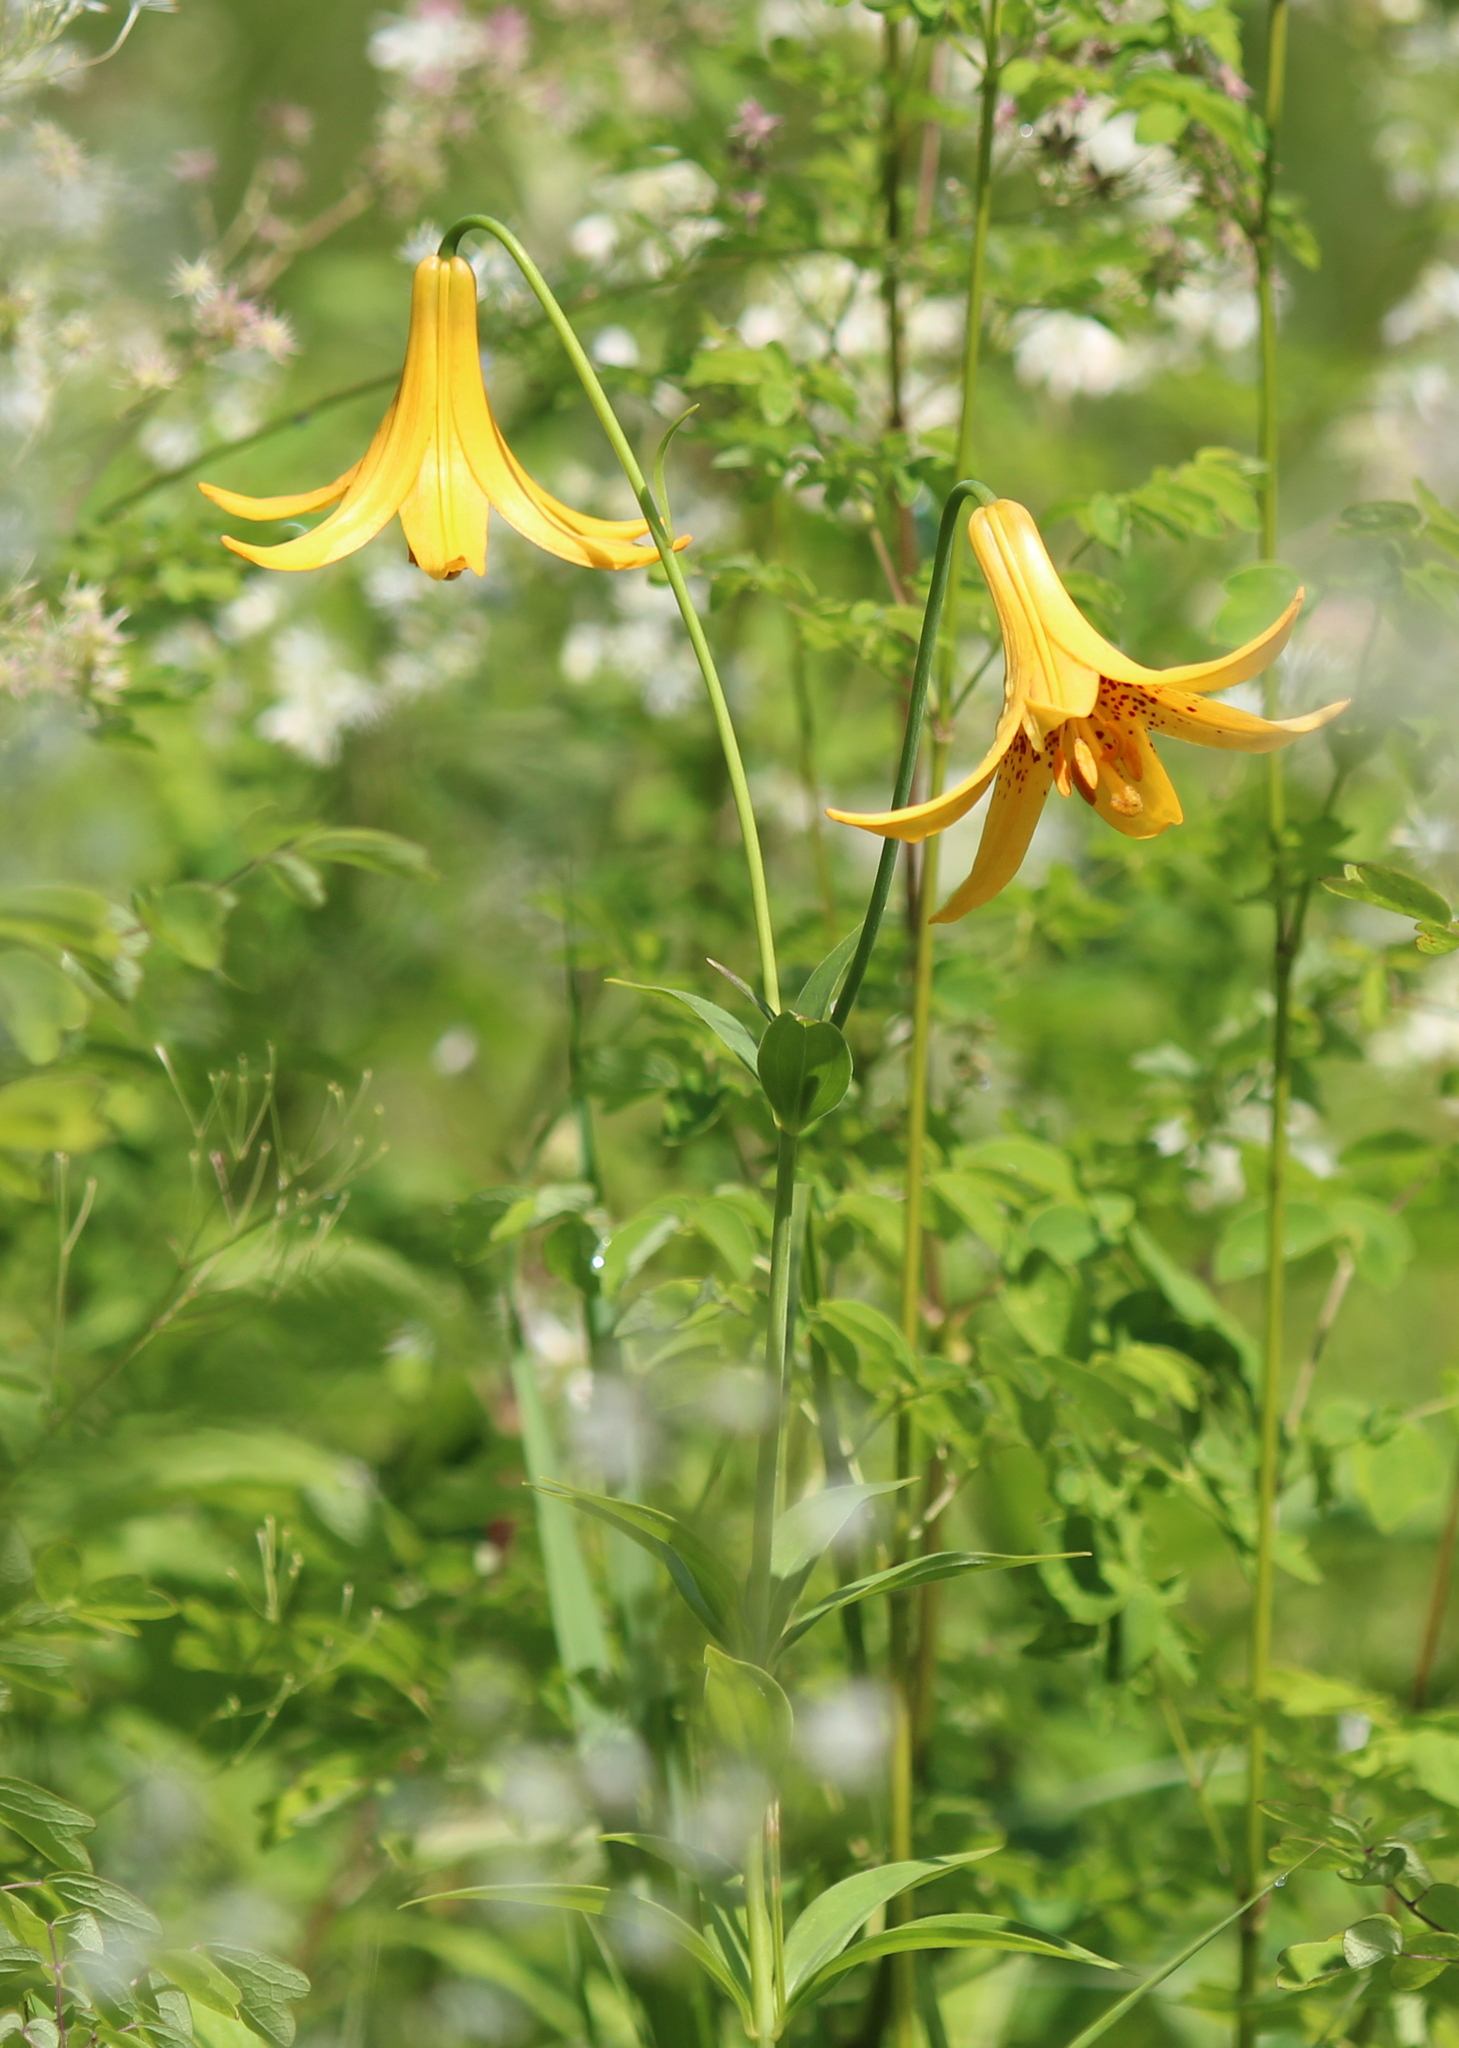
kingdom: Plantae
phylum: Tracheophyta
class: Liliopsida
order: Liliales
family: Liliaceae
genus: Lilium
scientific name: Lilium canadense
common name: Canada lily
